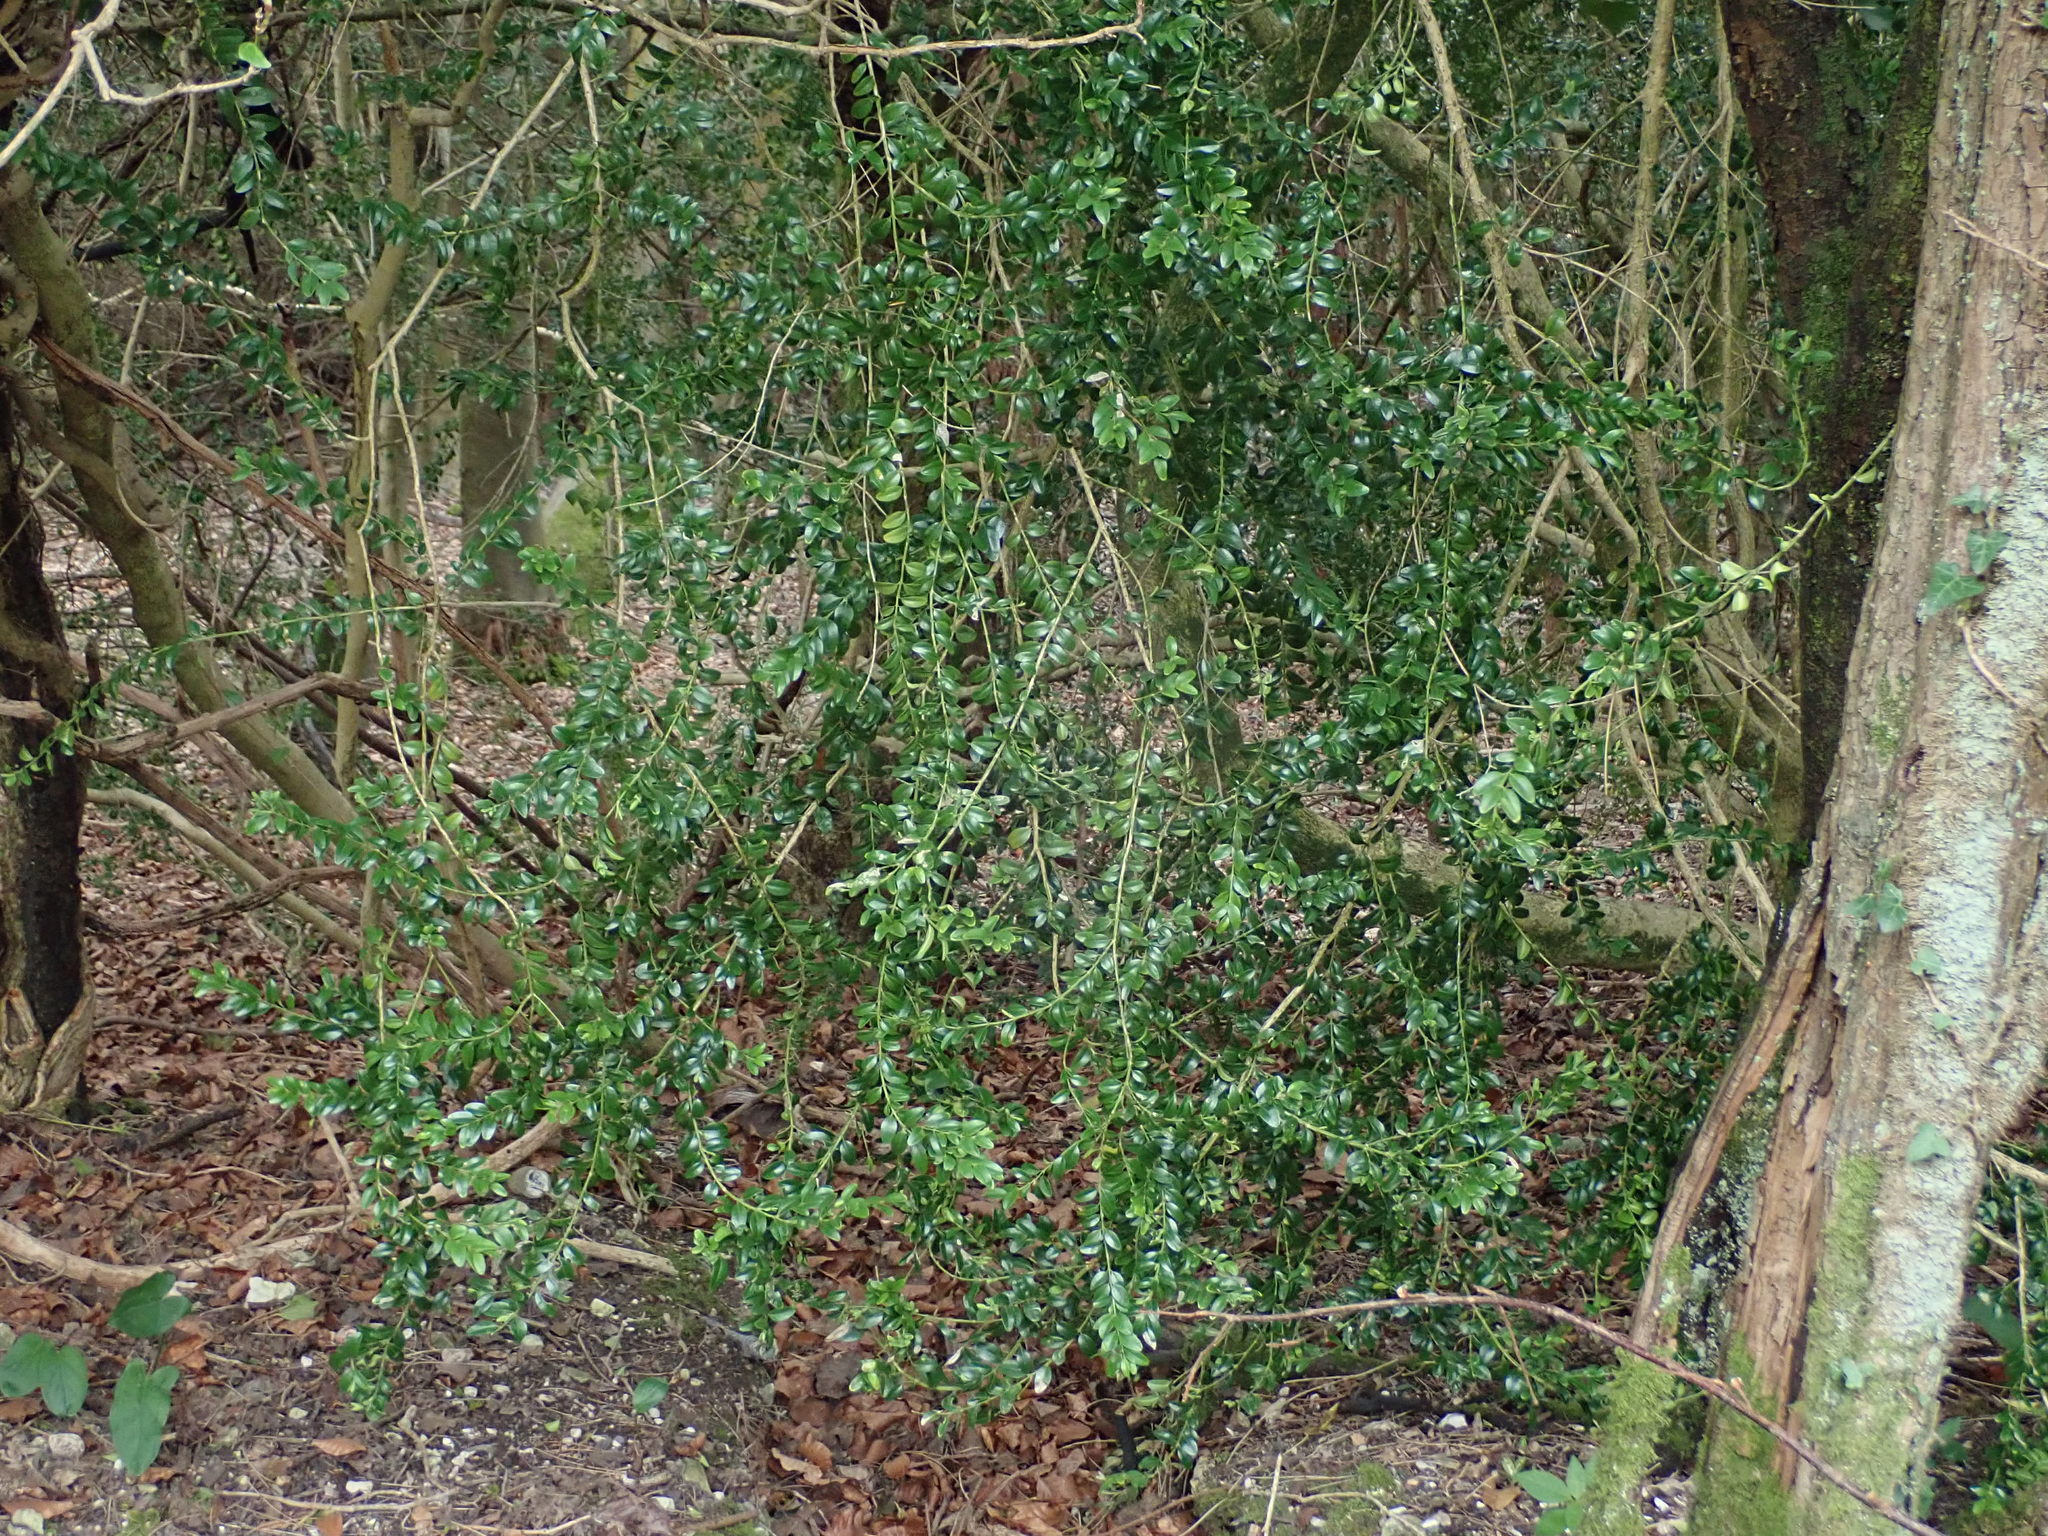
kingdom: Plantae
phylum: Tracheophyta
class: Magnoliopsida
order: Buxales
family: Buxaceae
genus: Buxus
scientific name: Buxus sempervirens
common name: Box
